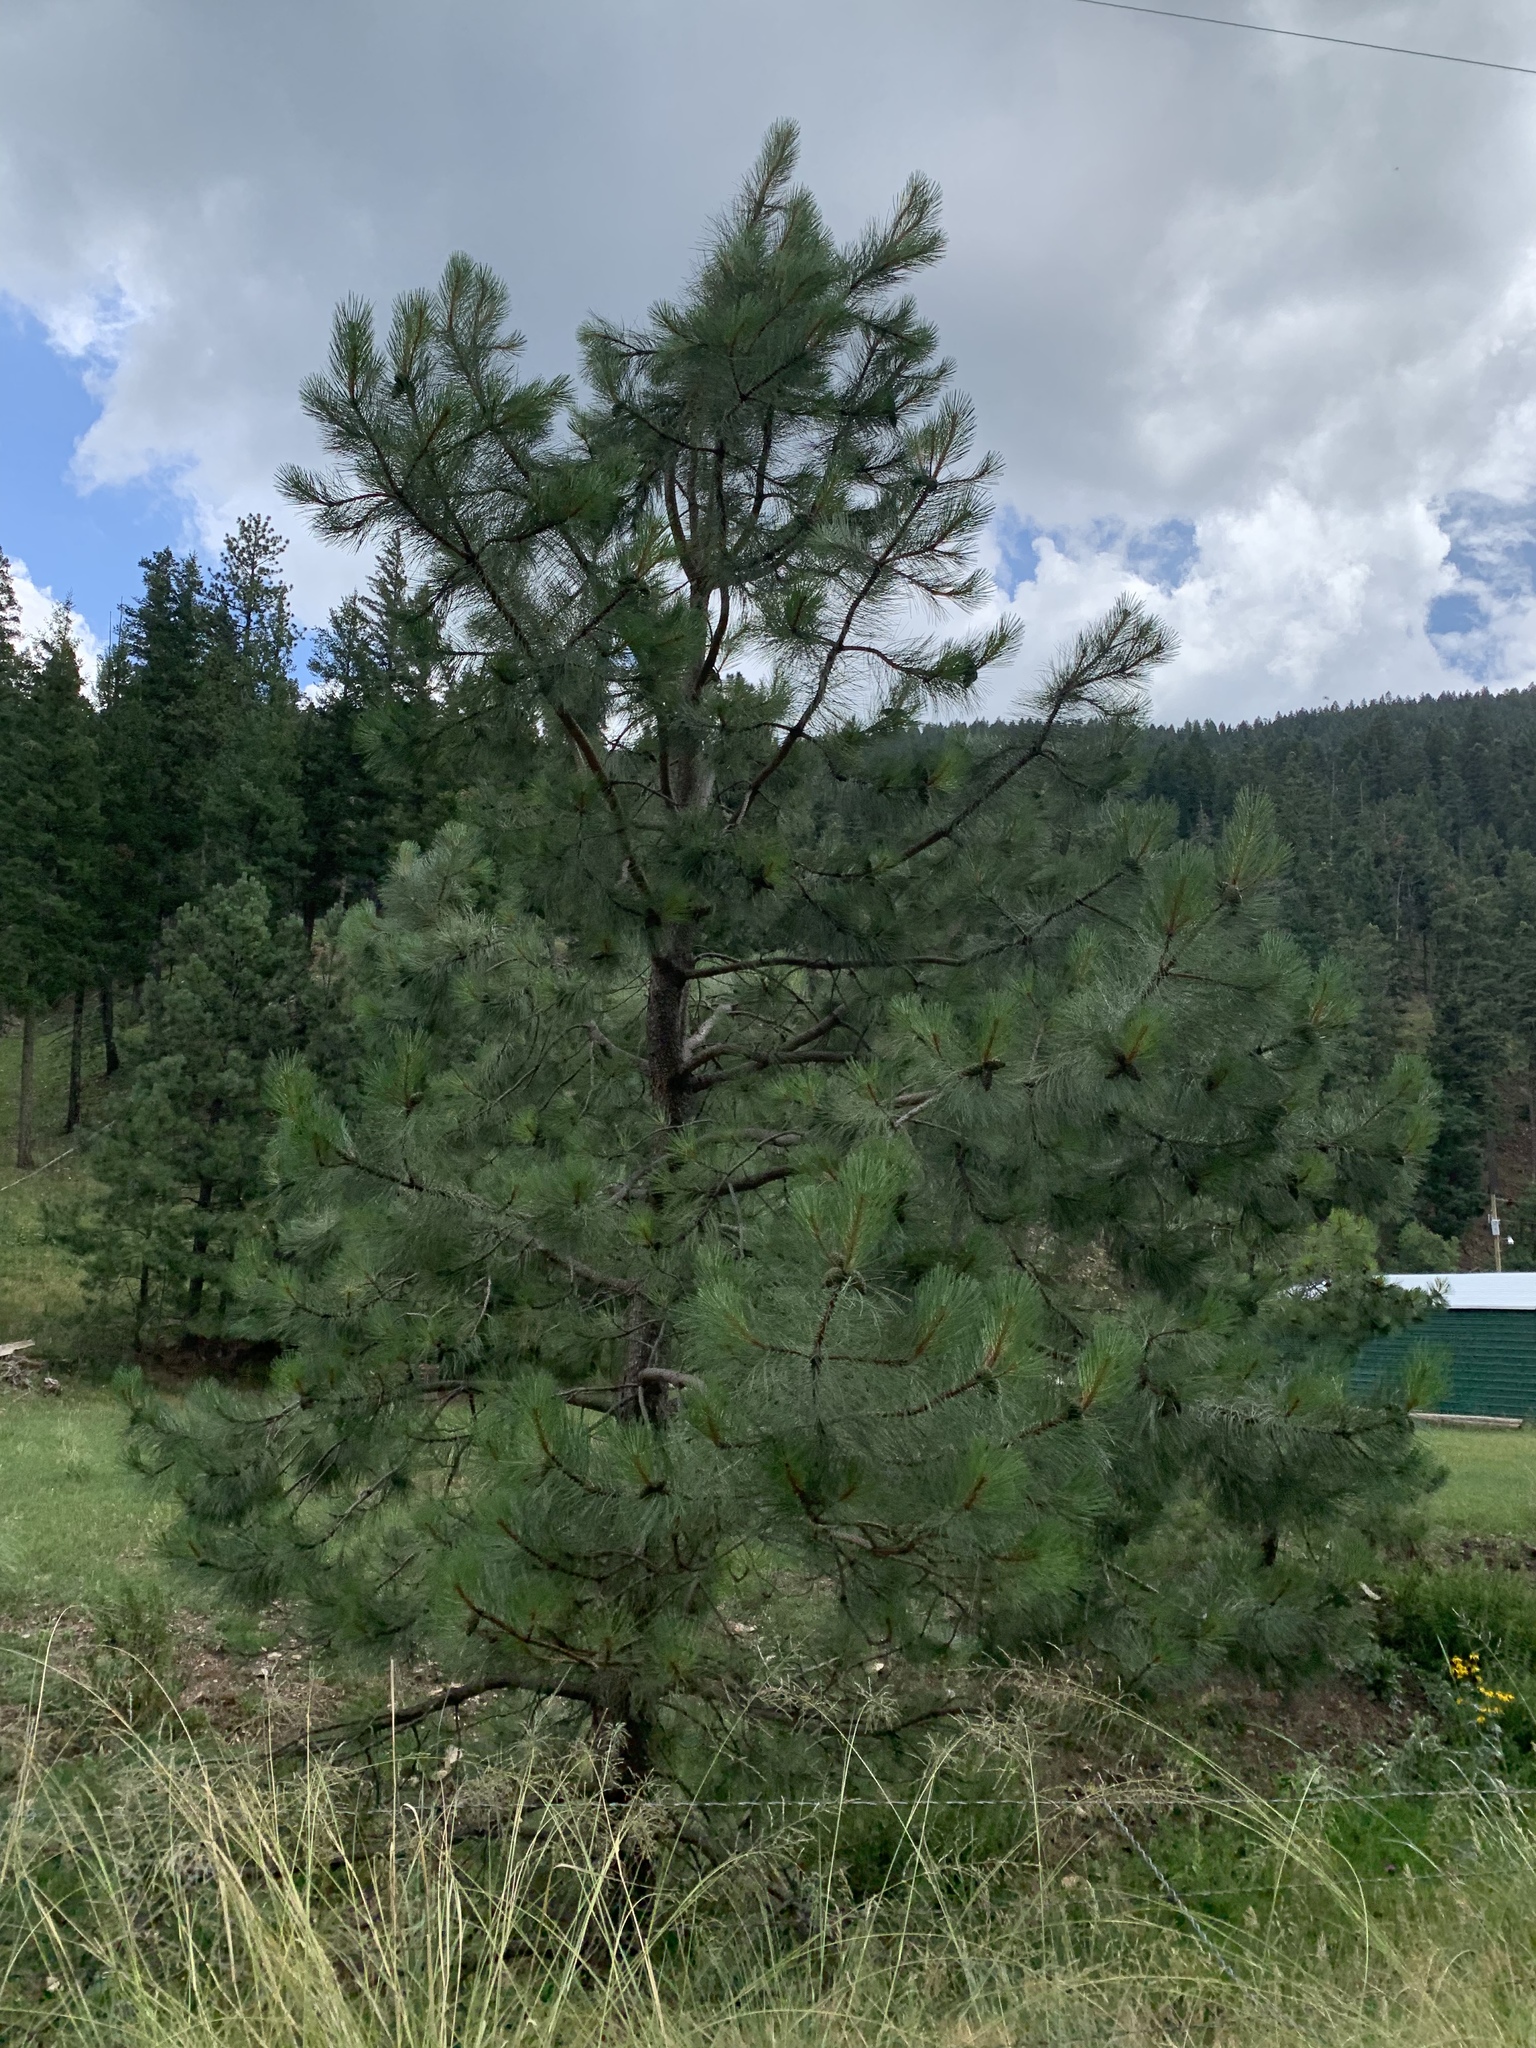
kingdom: Plantae
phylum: Tracheophyta
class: Pinopsida
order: Pinales
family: Pinaceae
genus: Pinus
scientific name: Pinus ponderosa
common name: Western yellow-pine
